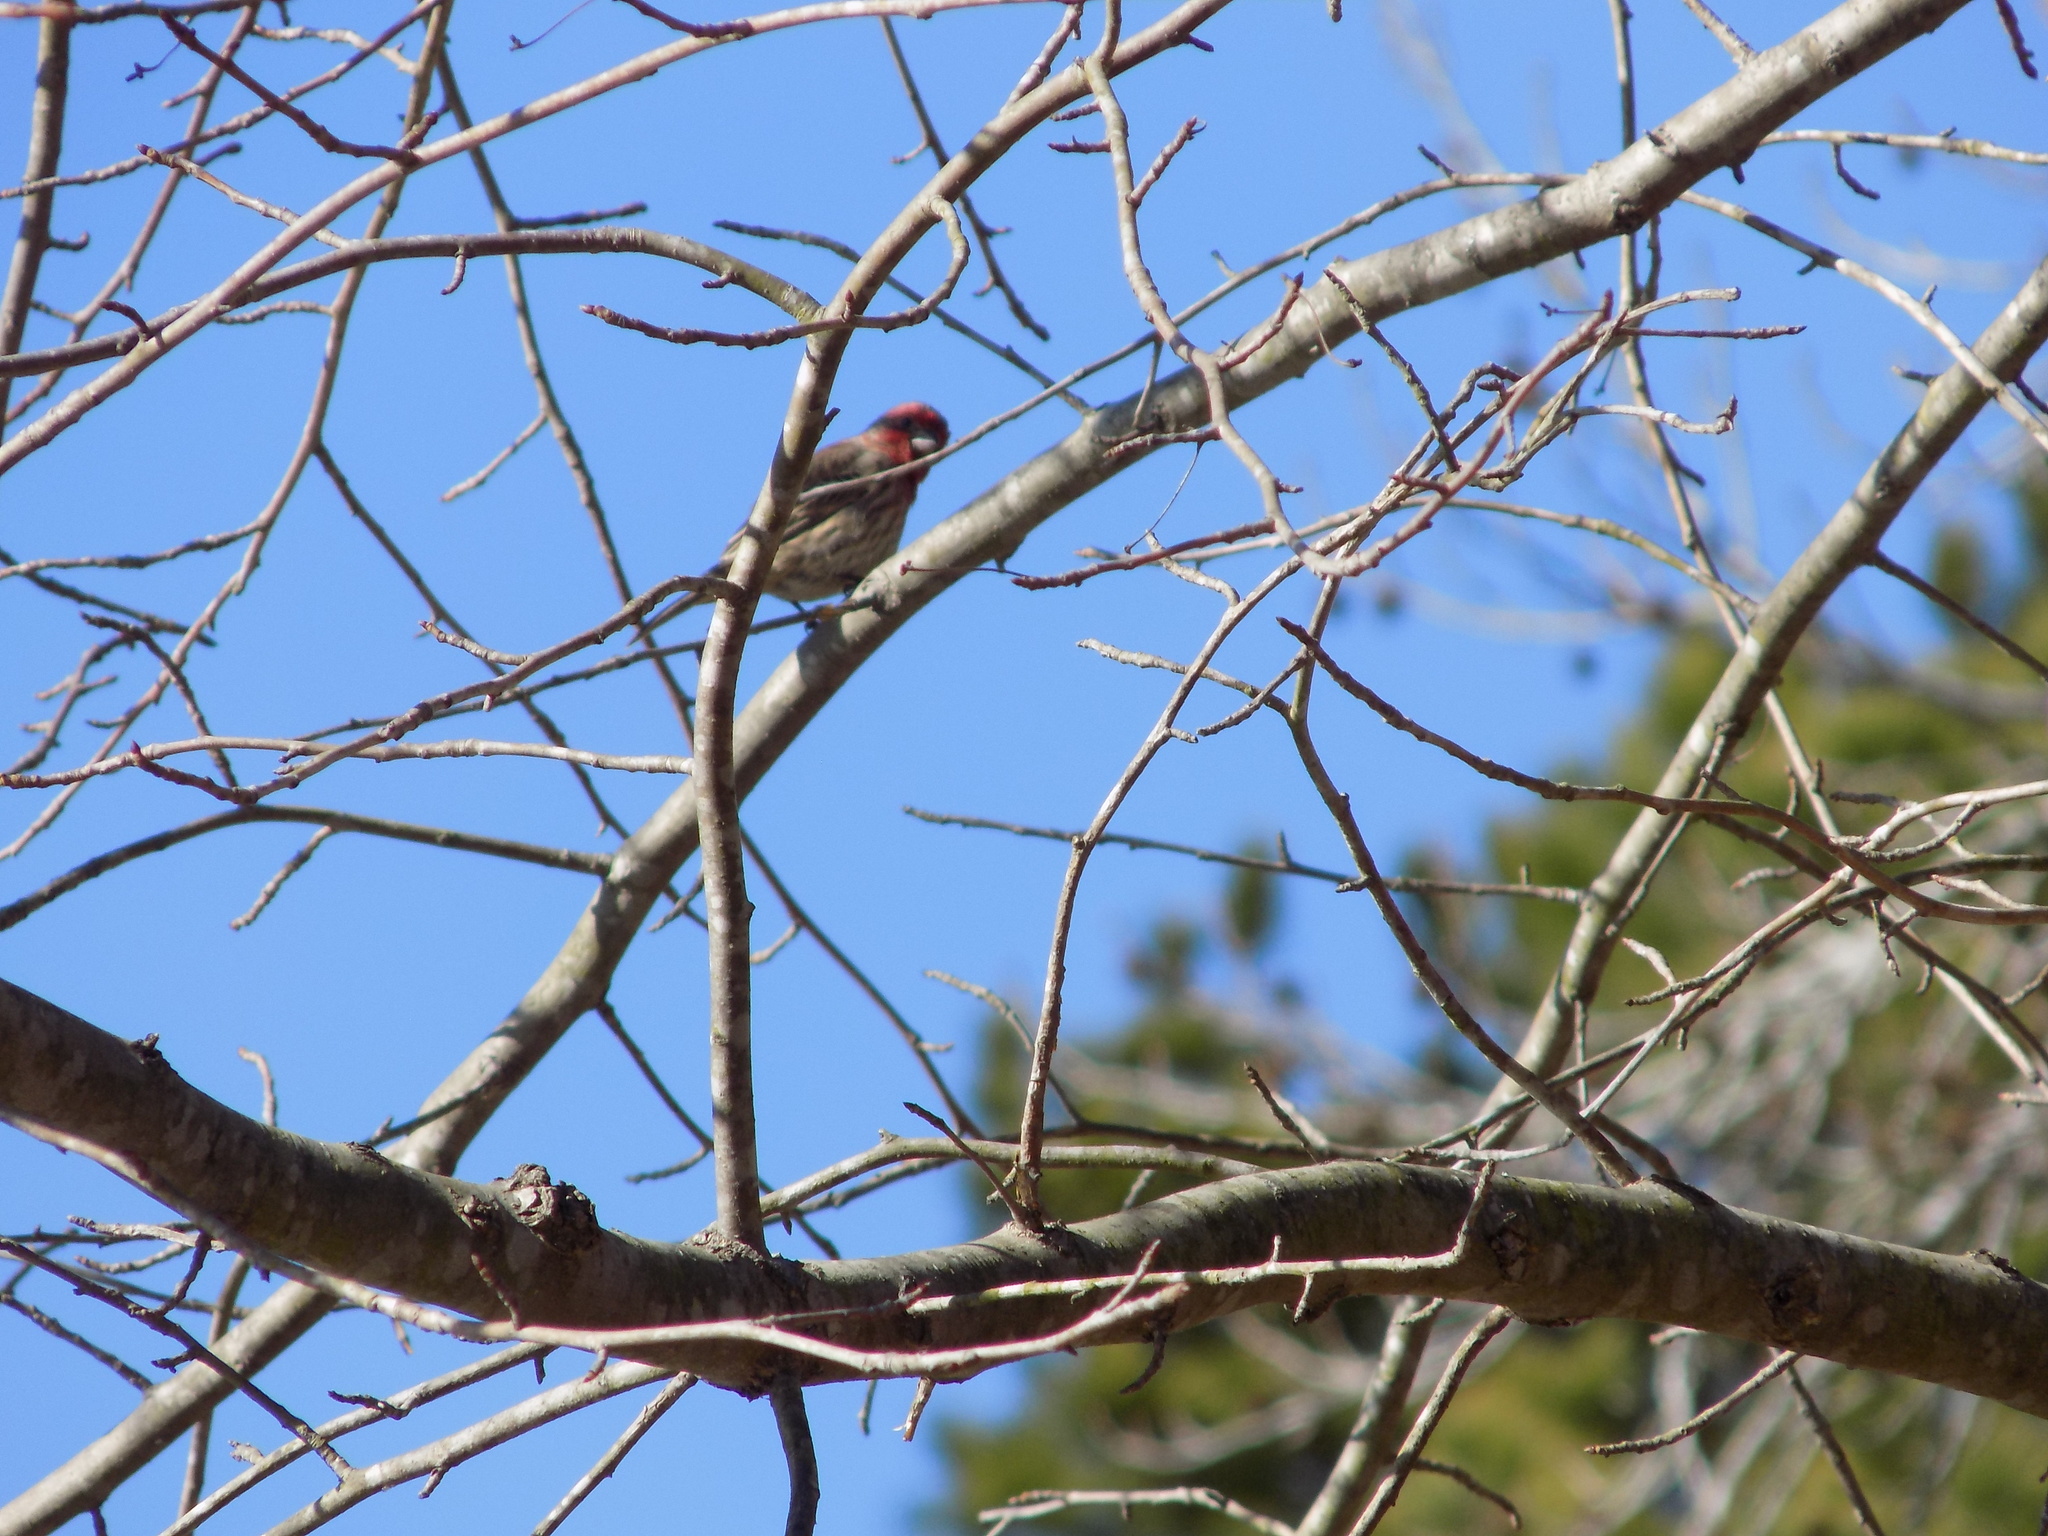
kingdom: Animalia
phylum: Chordata
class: Aves
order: Passeriformes
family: Fringillidae
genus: Haemorhous
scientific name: Haemorhous mexicanus
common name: House finch
